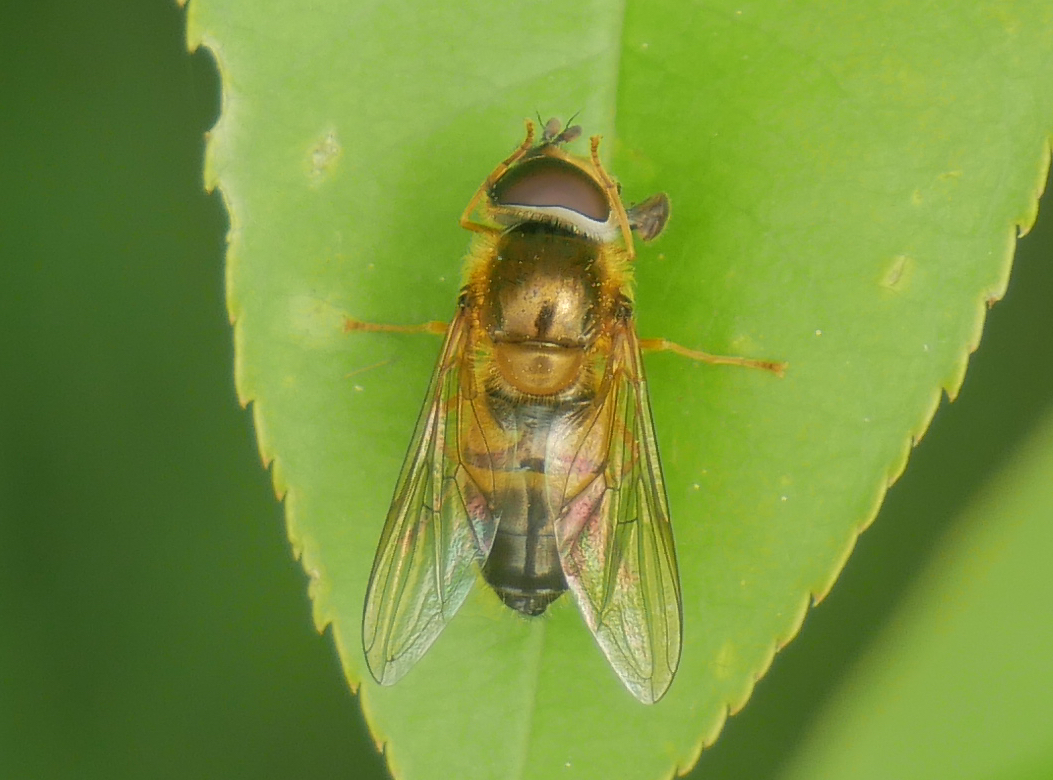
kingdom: Animalia
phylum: Arthropoda
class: Insecta
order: Diptera
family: Syrphidae
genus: Epistrophe
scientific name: Epistrophe eligans
